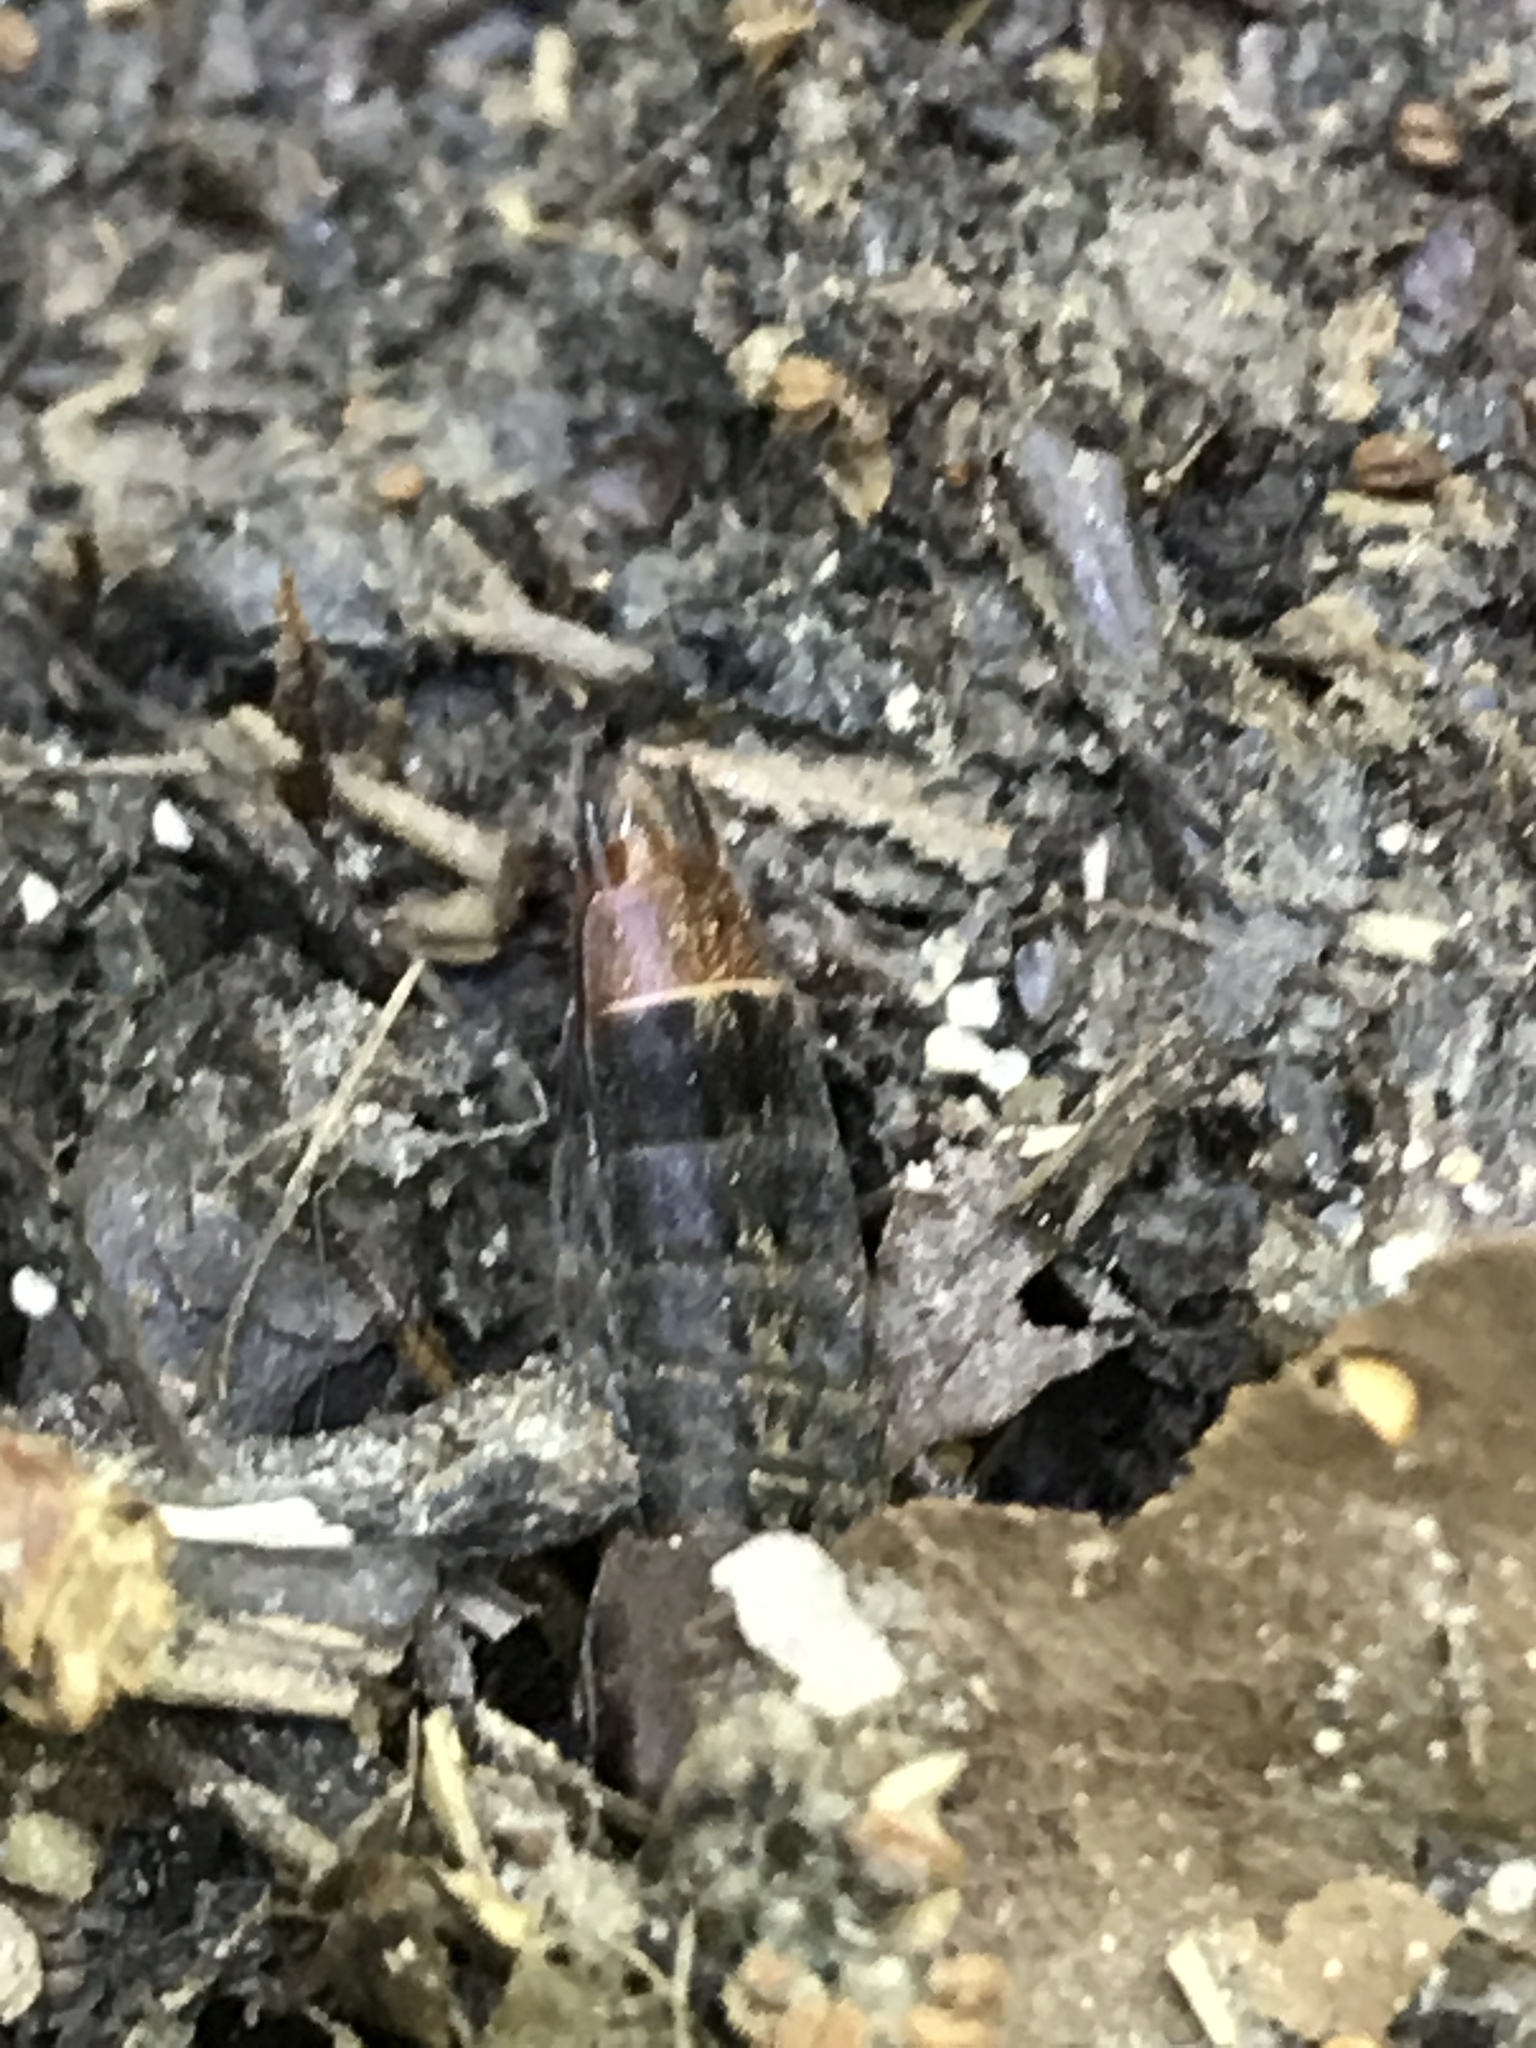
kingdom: Animalia
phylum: Arthropoda
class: Insecta
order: Coleoptera
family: Staphylinidae
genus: Platydracus
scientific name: Platydracus maculosus
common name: Brown rove beetle
